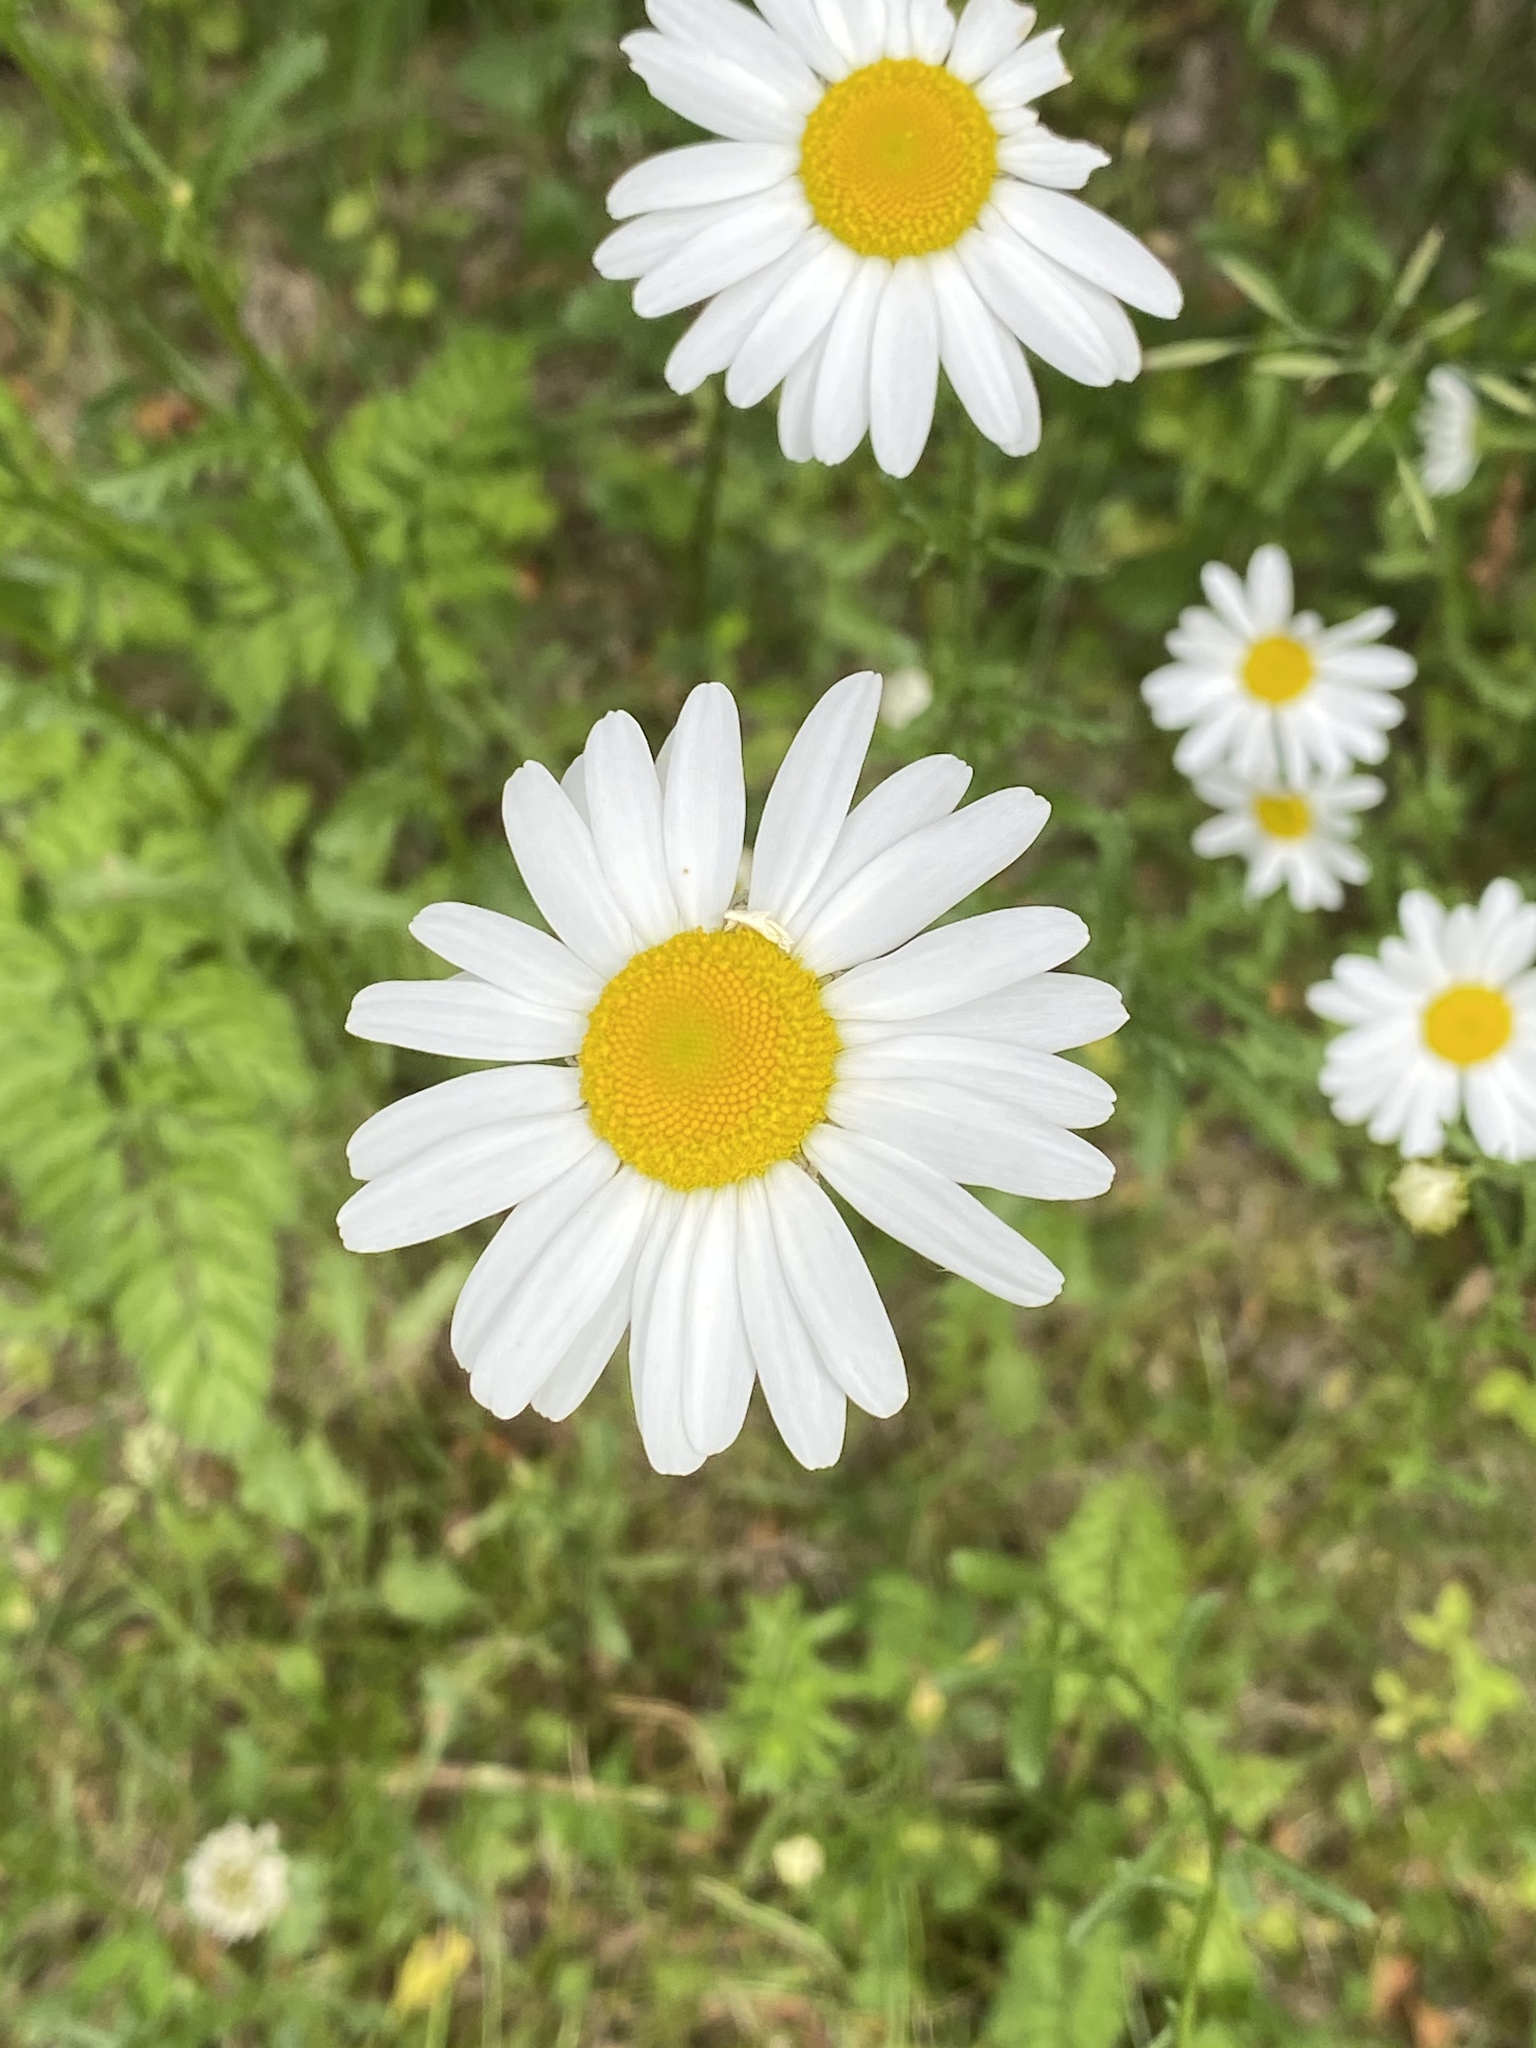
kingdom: Plantae
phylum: Tracheophyta
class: Magnoliopsida
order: Asterales
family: Asteraceae
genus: Leucanthemum
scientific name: Leucanthemum vulgare
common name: Oxeye daisy
